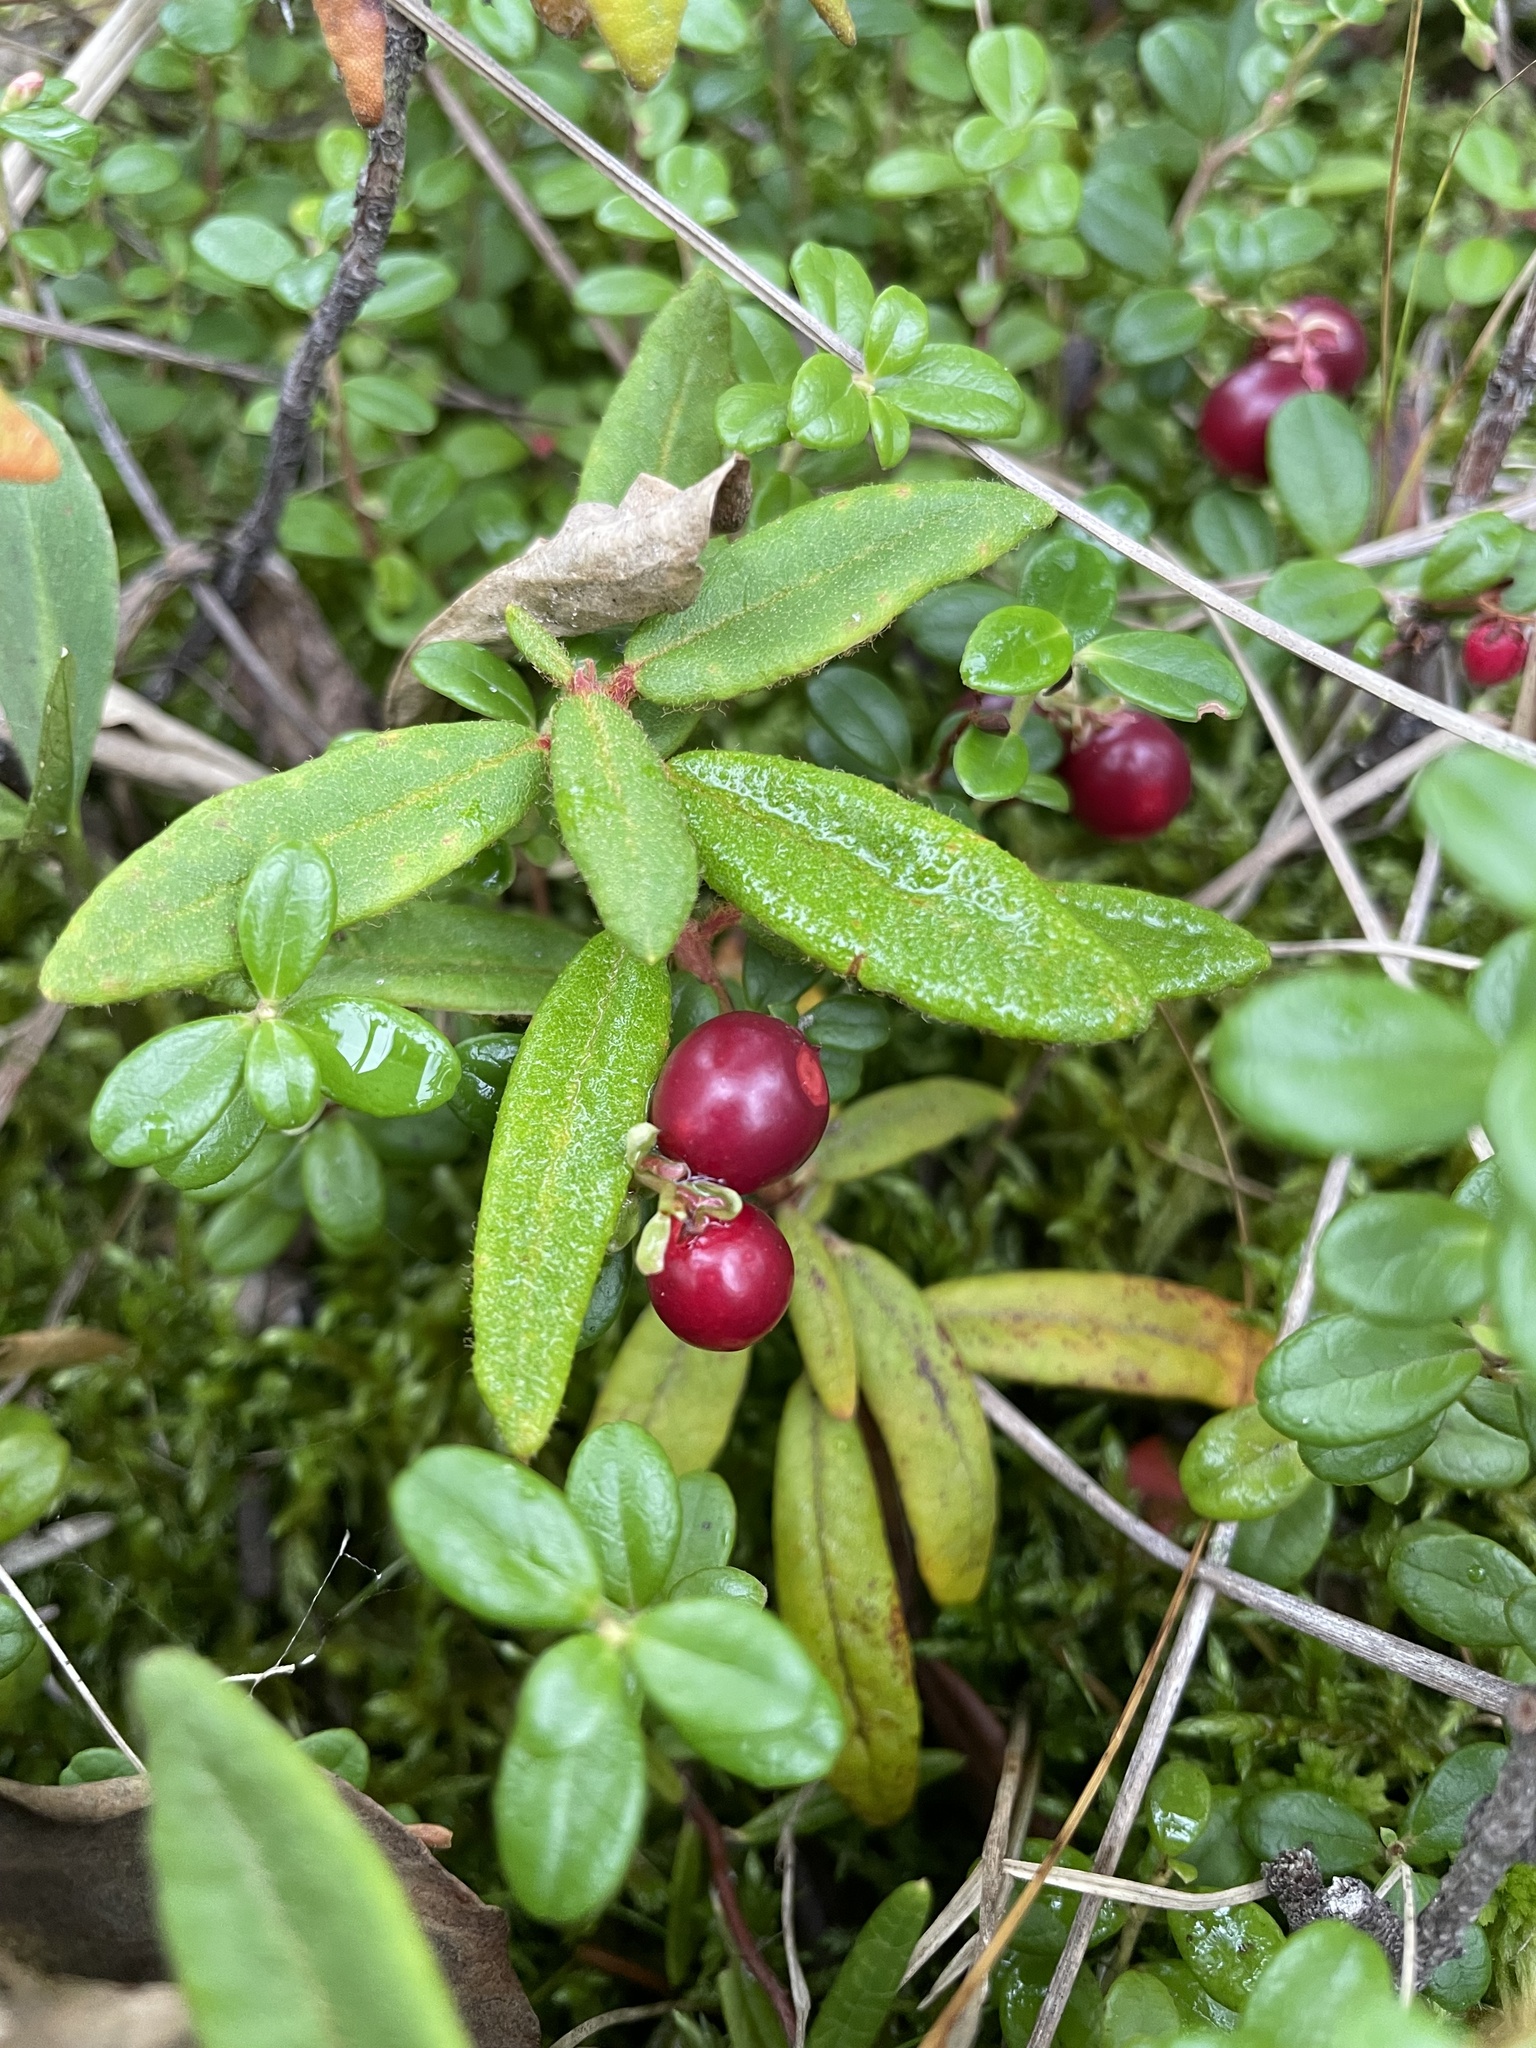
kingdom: Plantae
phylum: Tracheophyta
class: Magnoliopsida
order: Ericales
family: Ericaceae
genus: Vaccinium
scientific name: Vaccinium vitis-idaea
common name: Cowberry
